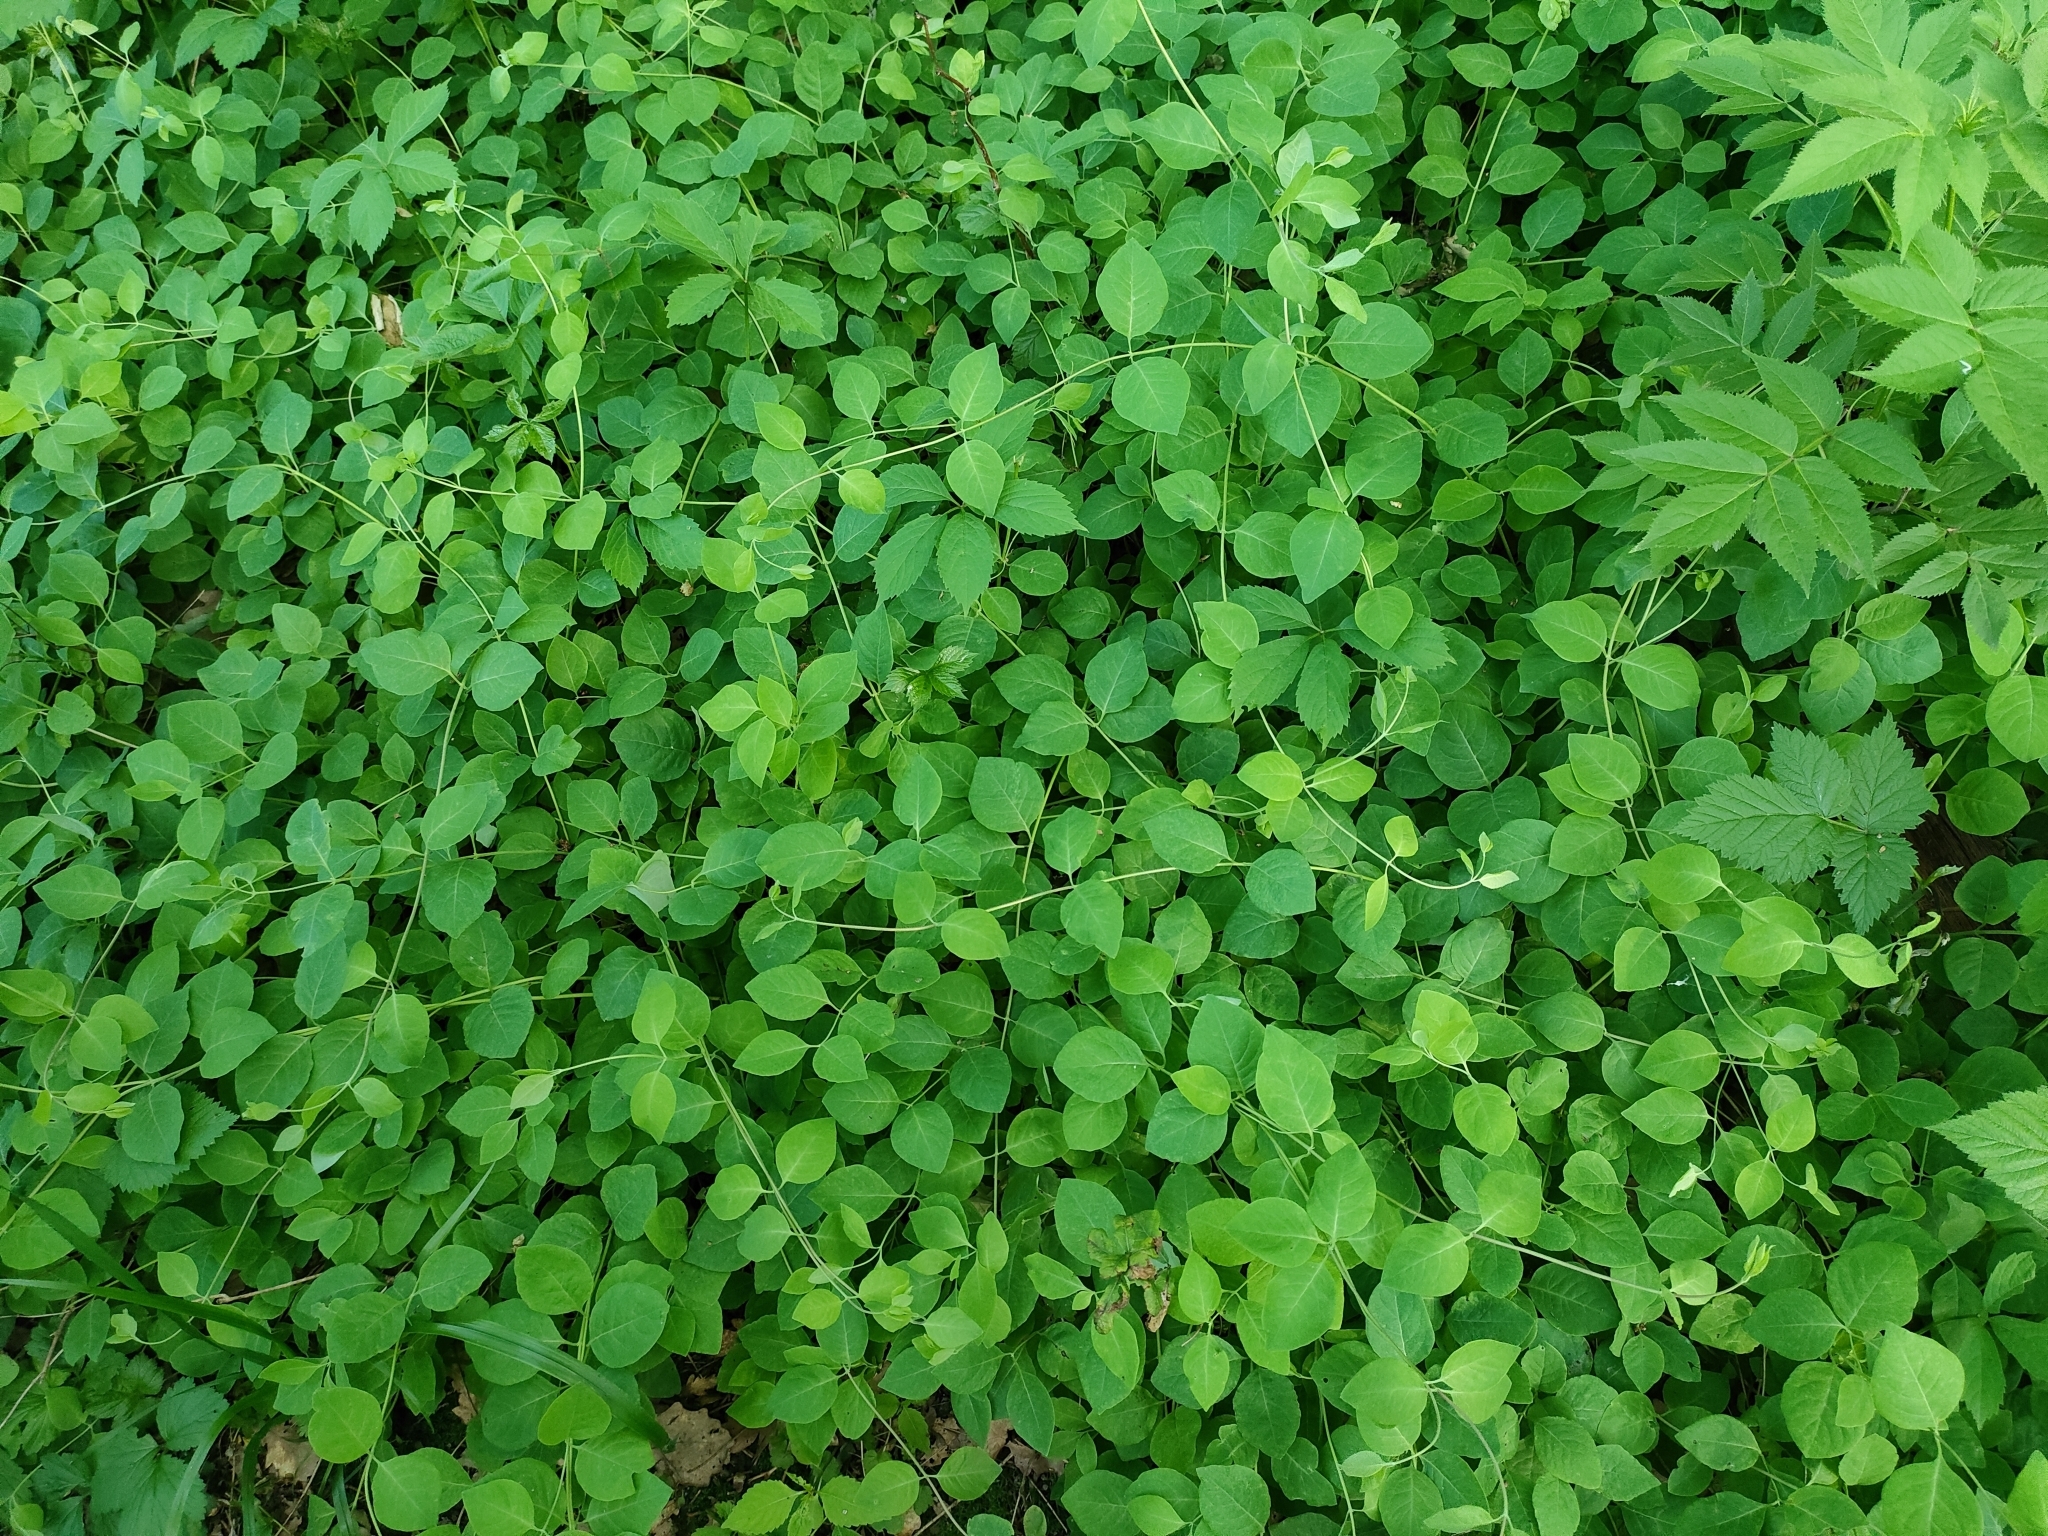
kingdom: Plantae
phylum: Tracheophyta
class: Magnoliopsida
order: Dipsacales
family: Caprifoliaceae
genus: Lonicera
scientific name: Lonicera caprifolium
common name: Perfoliate honeysuckle
